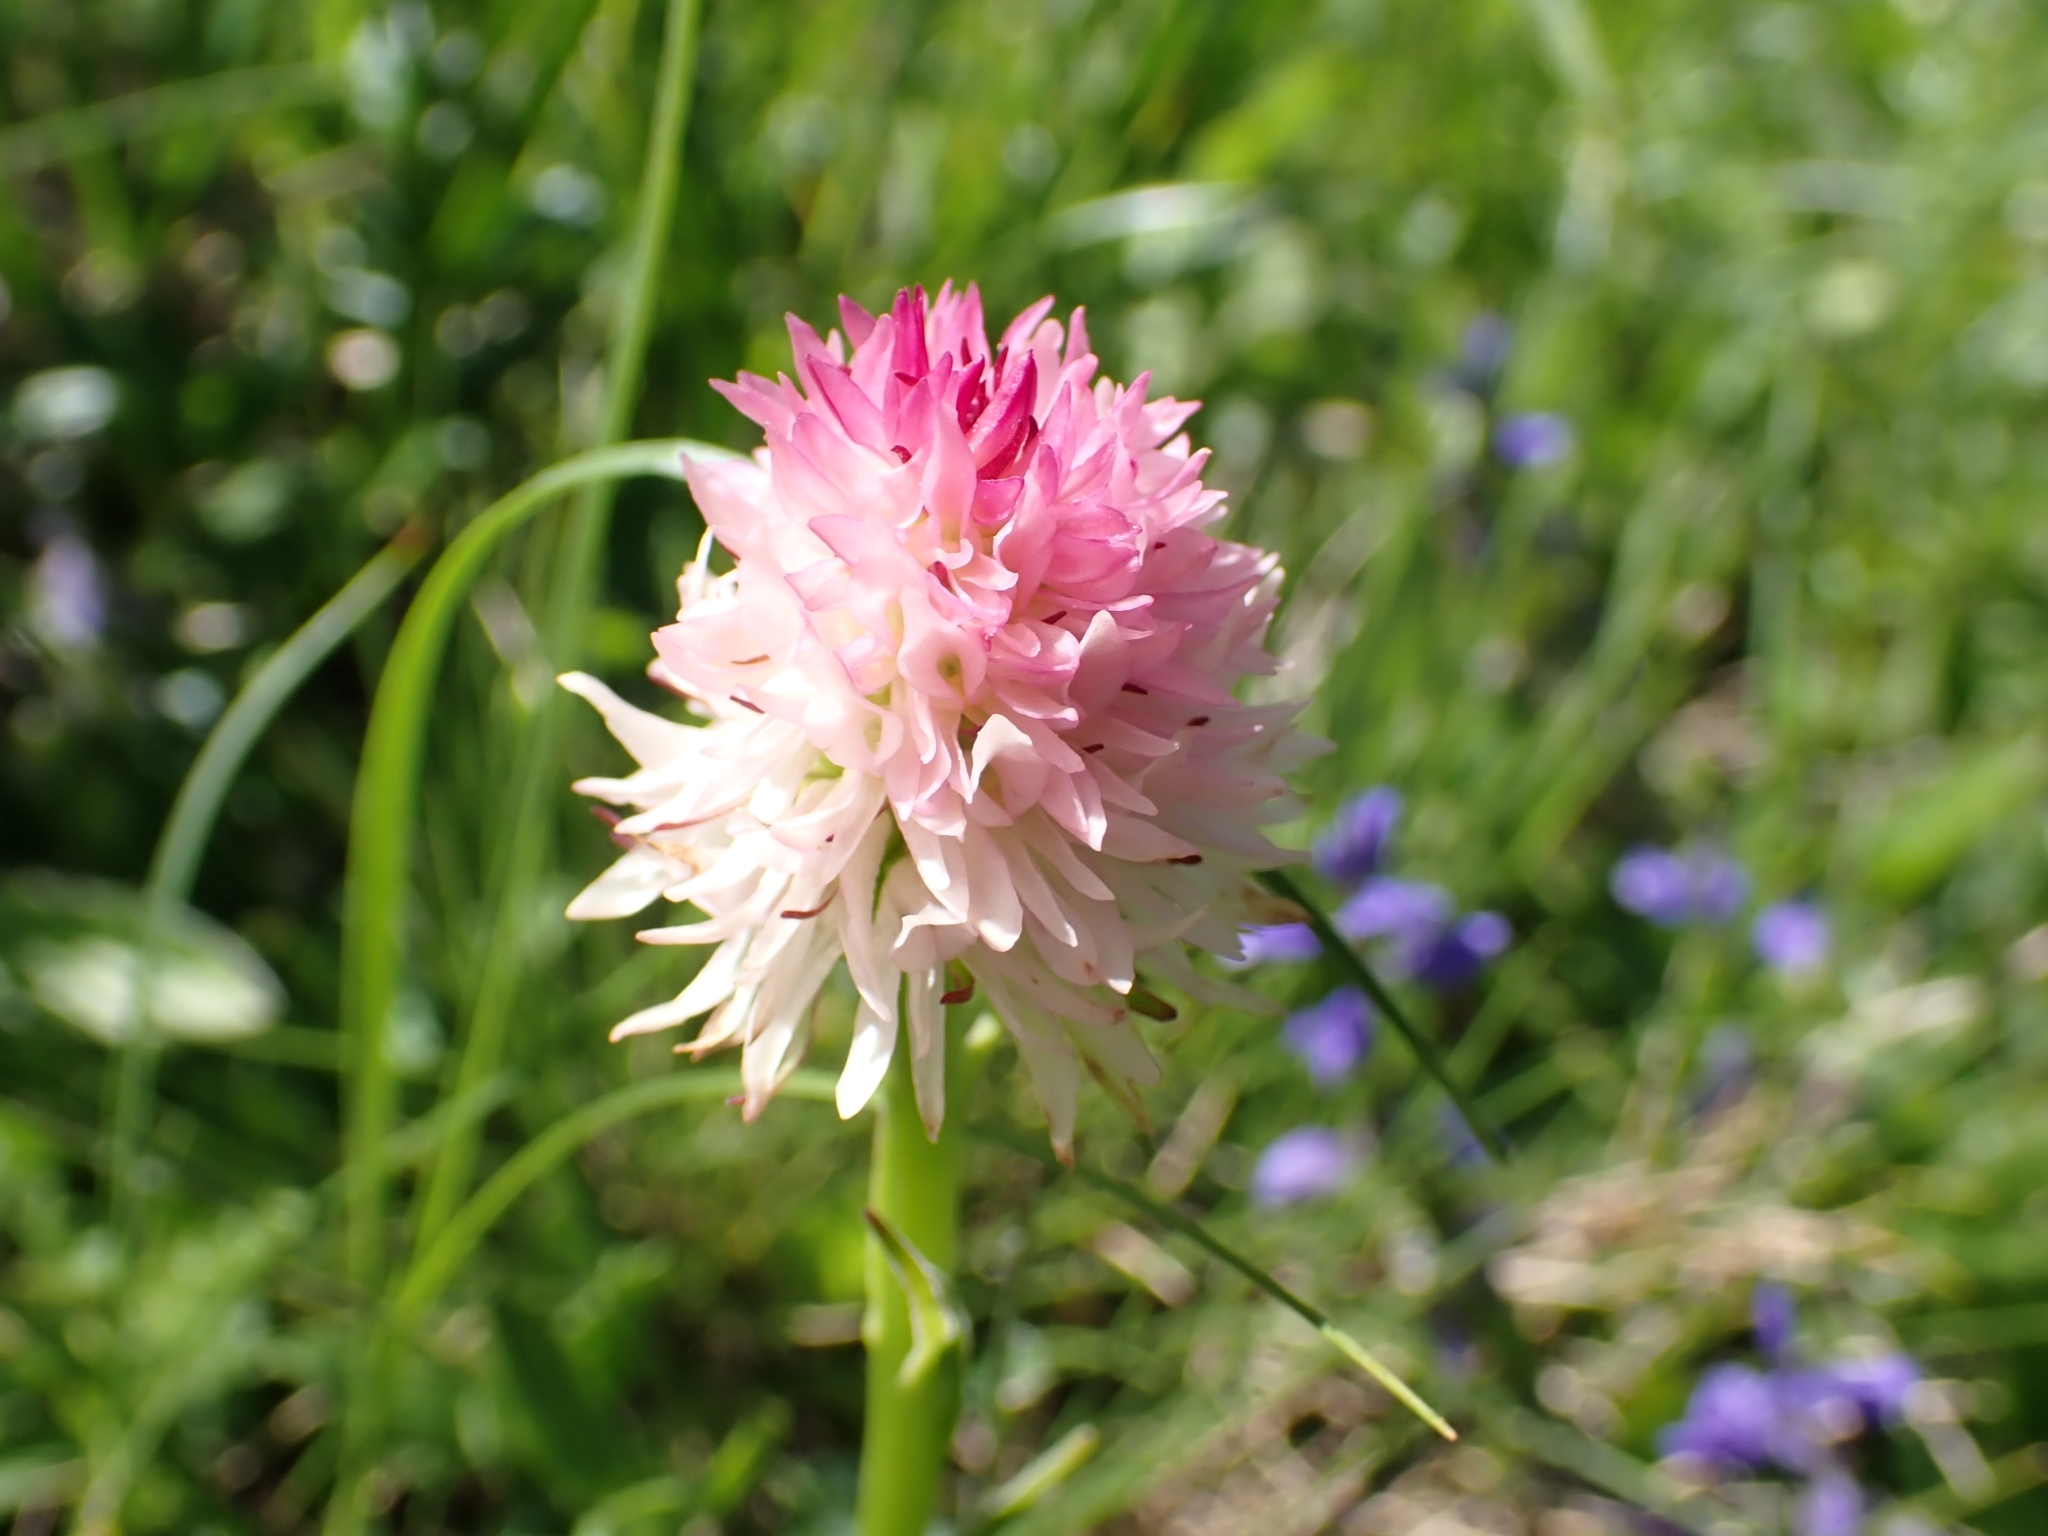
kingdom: Plantae
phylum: Tracheophyta
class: Liliopsida
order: Asparagales
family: Orchidaceae
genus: Gymnadenia
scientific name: Gymnadenia lithopolitanica
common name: Austrian gymnadenia
